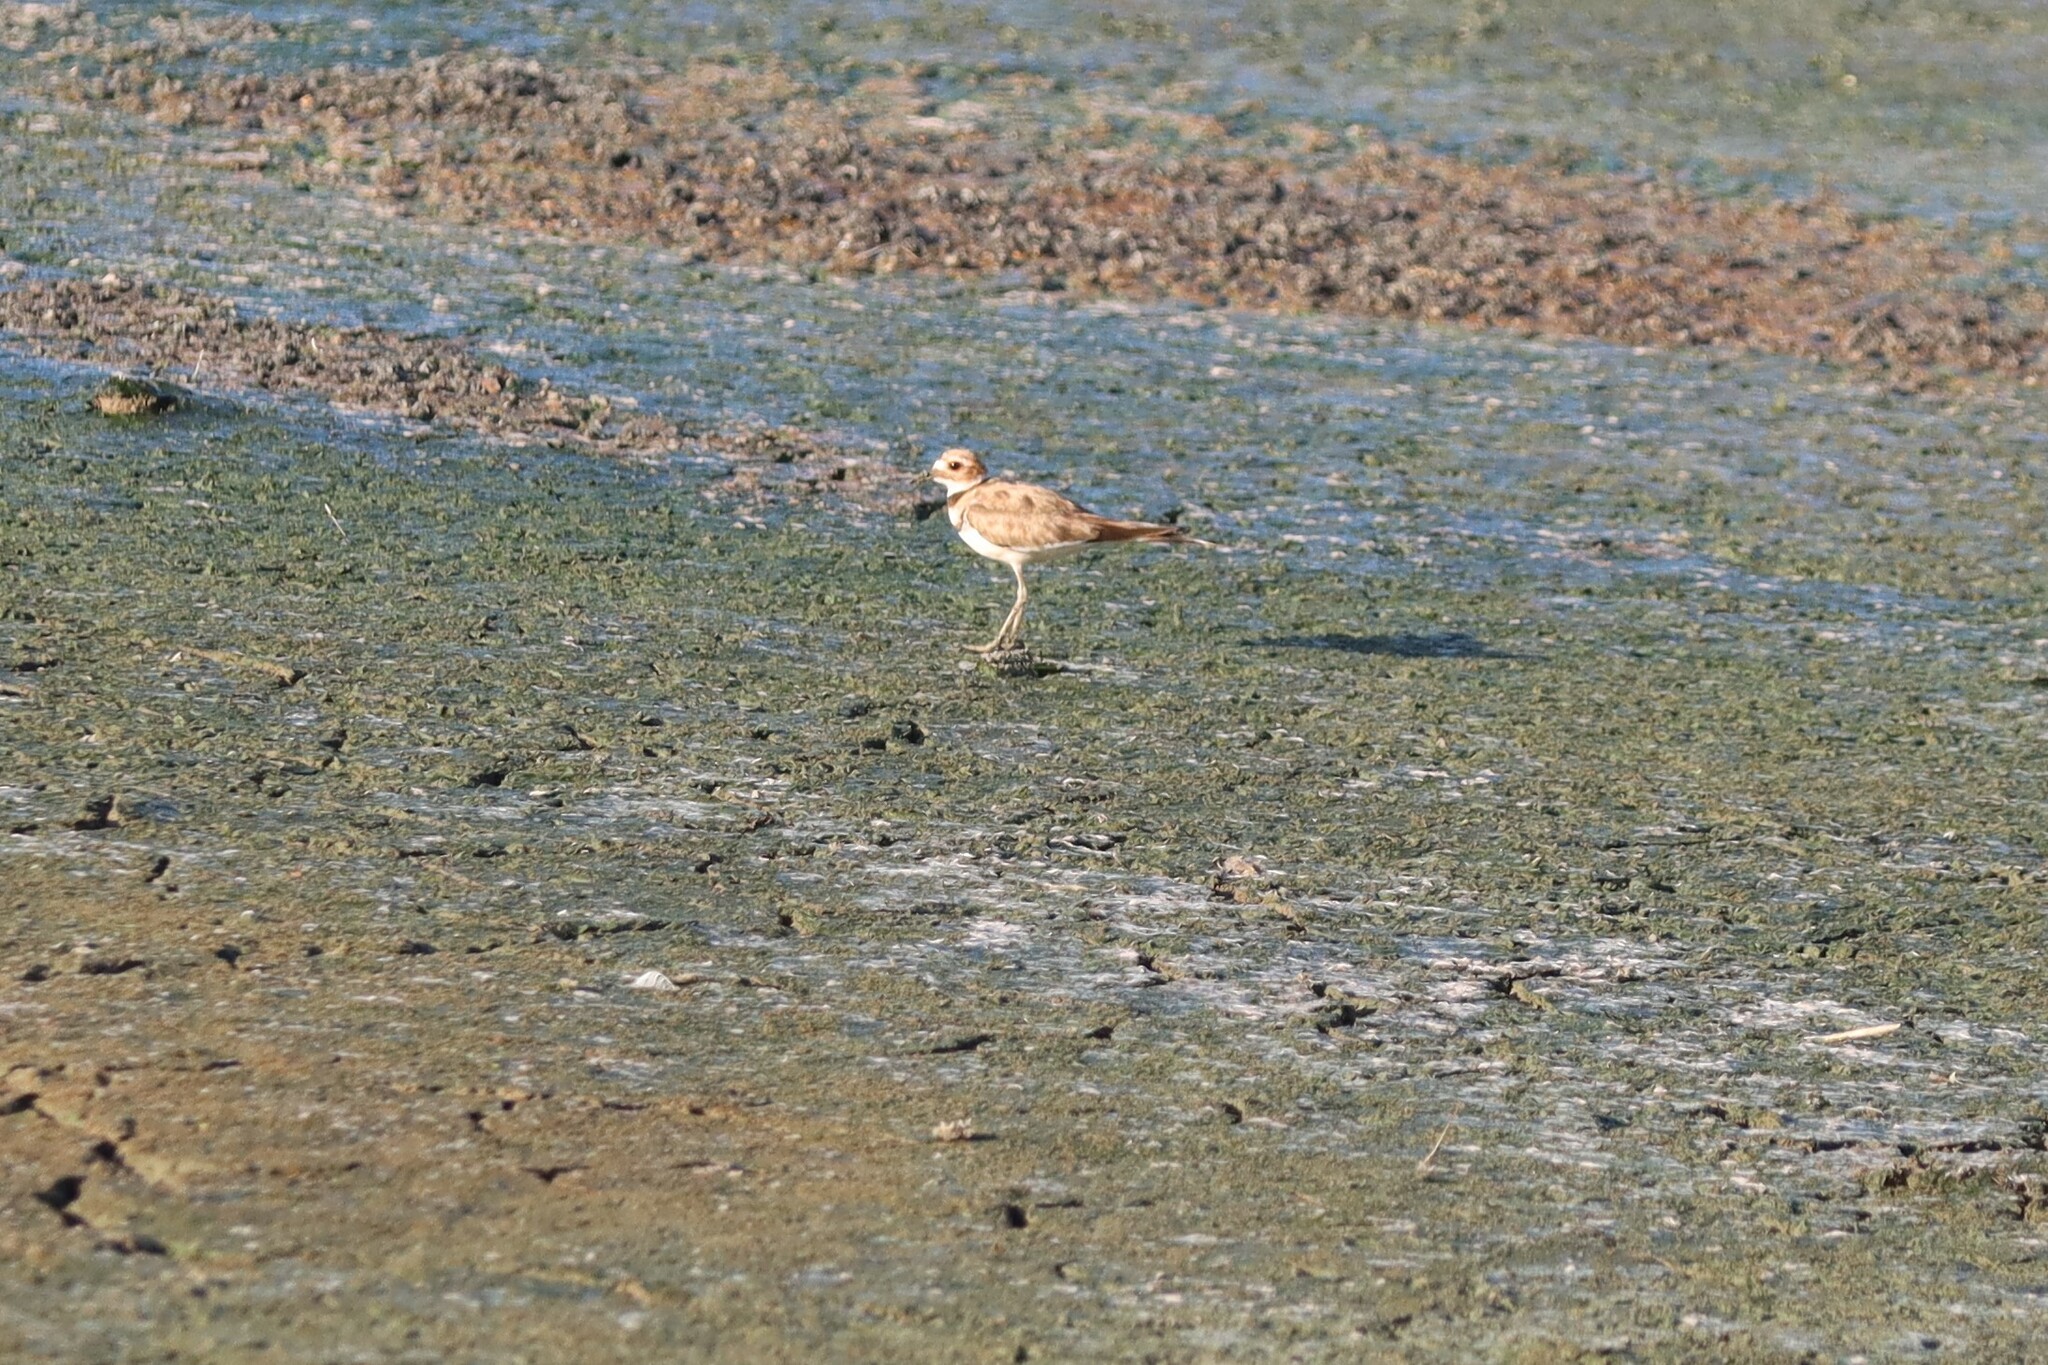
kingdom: Animalia
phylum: Chordata
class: Aves
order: Charadriiformes
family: Charadriidae
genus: Charadrius
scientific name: Charadrius vociferus
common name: Killdeer
